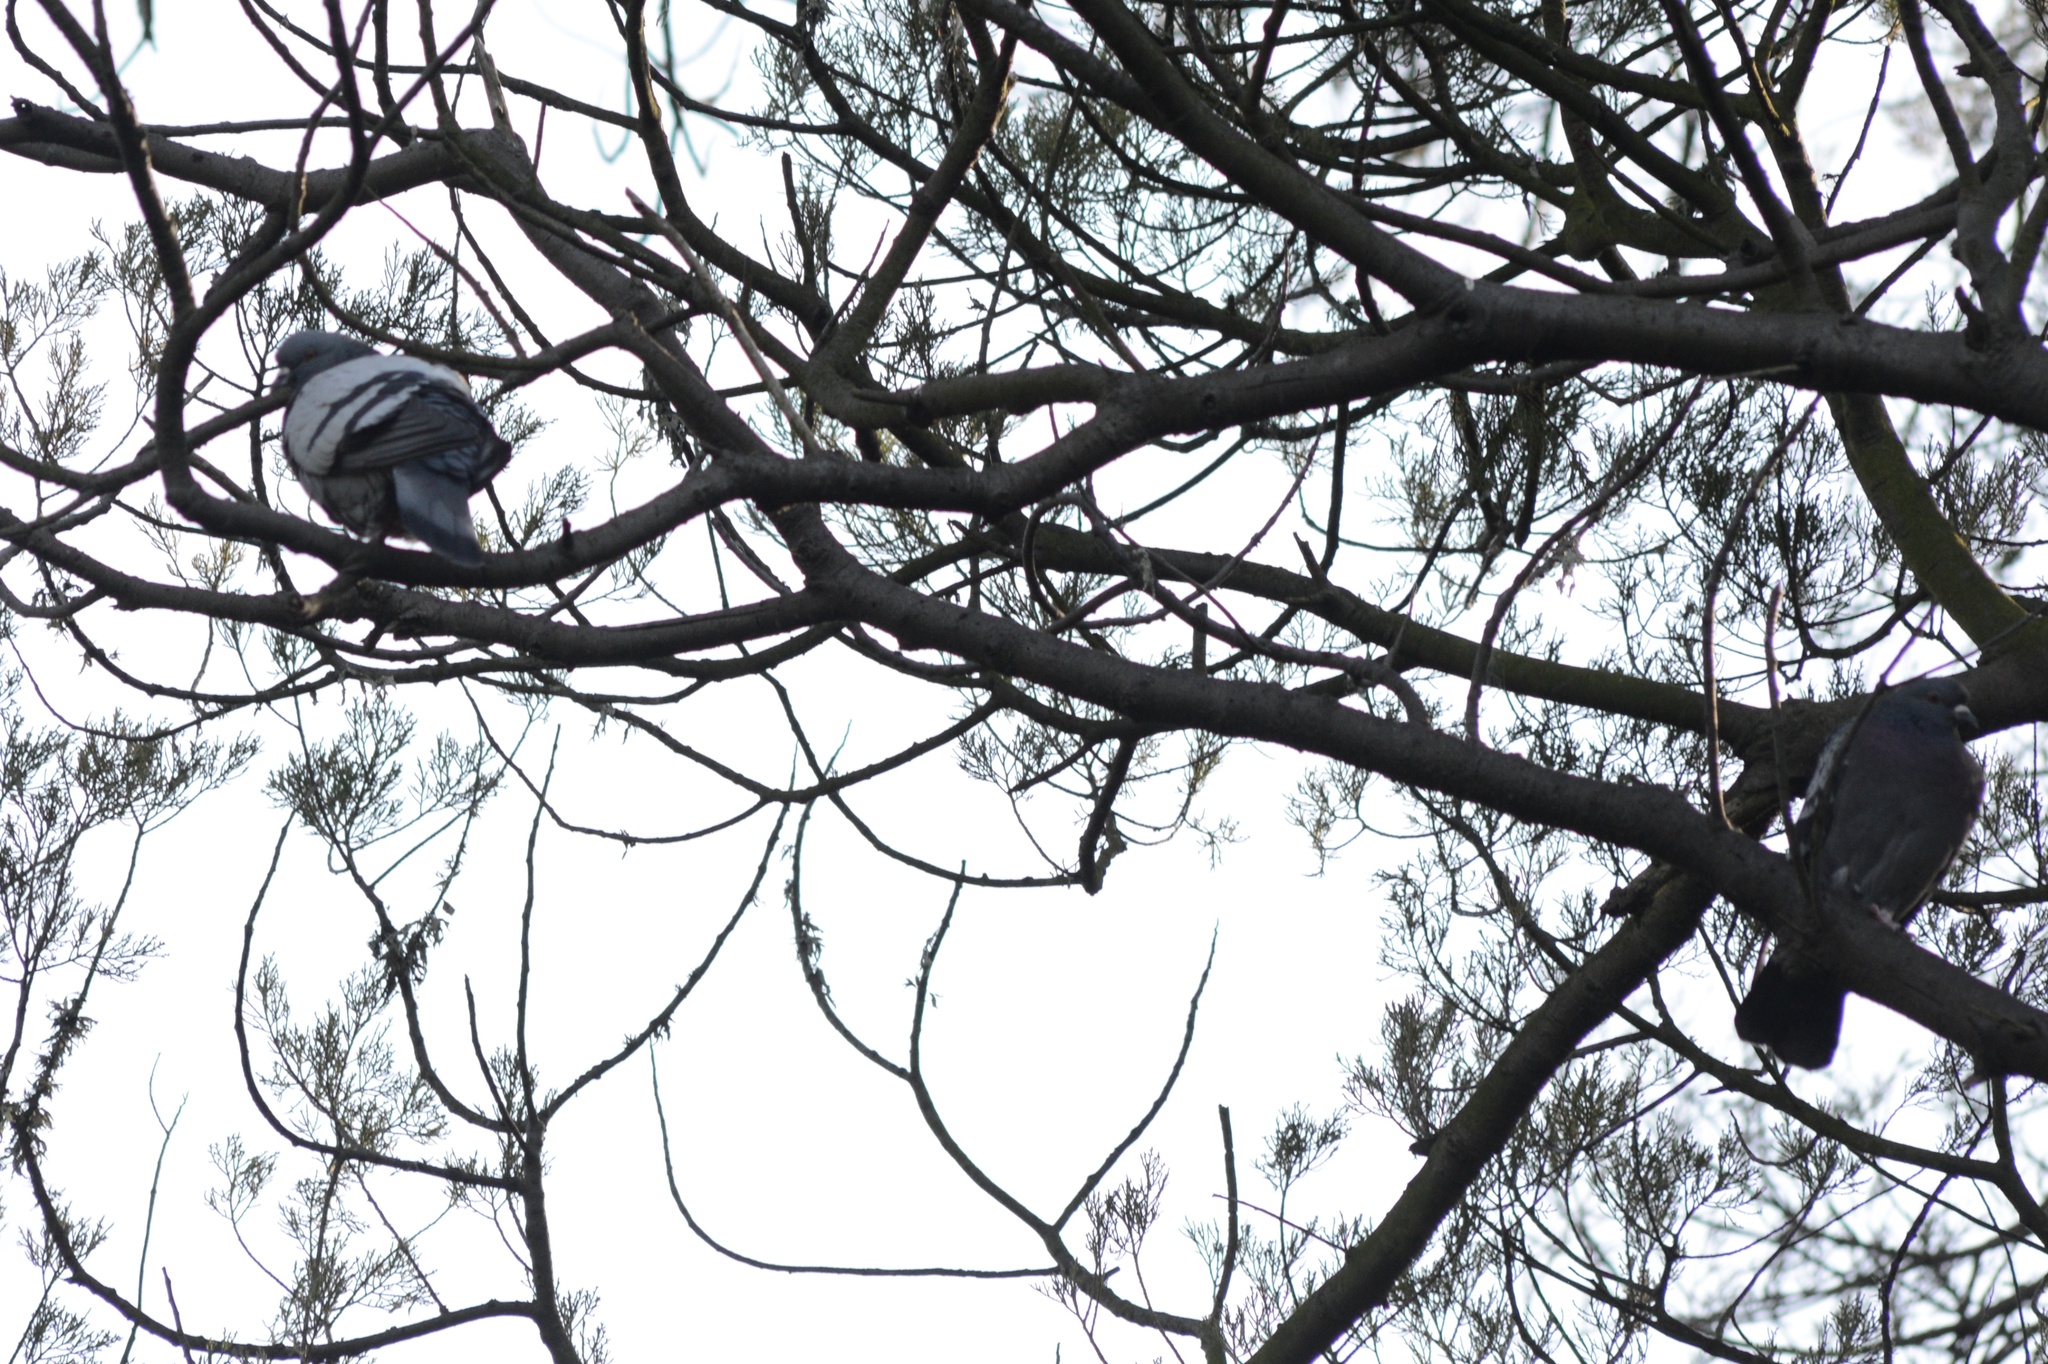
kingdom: Animalia
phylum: Chordata
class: Aves
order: Columbiformes
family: Columbidae
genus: Columba
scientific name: Columba livia
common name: Rock pigeon
